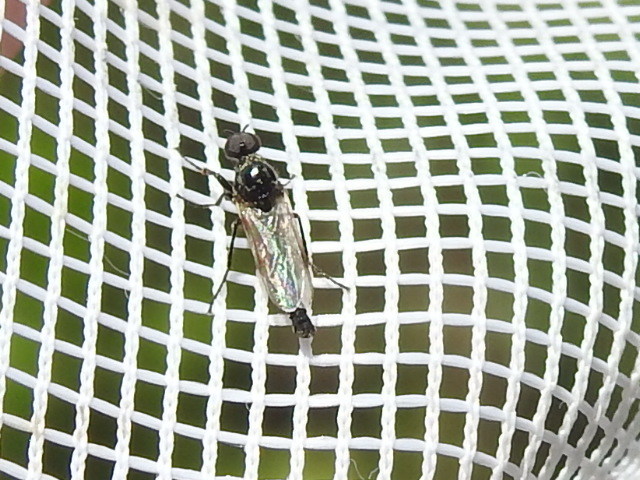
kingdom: Animalia
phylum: Arthropoda
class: Insecta
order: Diptera
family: Bibionidae
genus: Dilophus
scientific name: Dilophus
